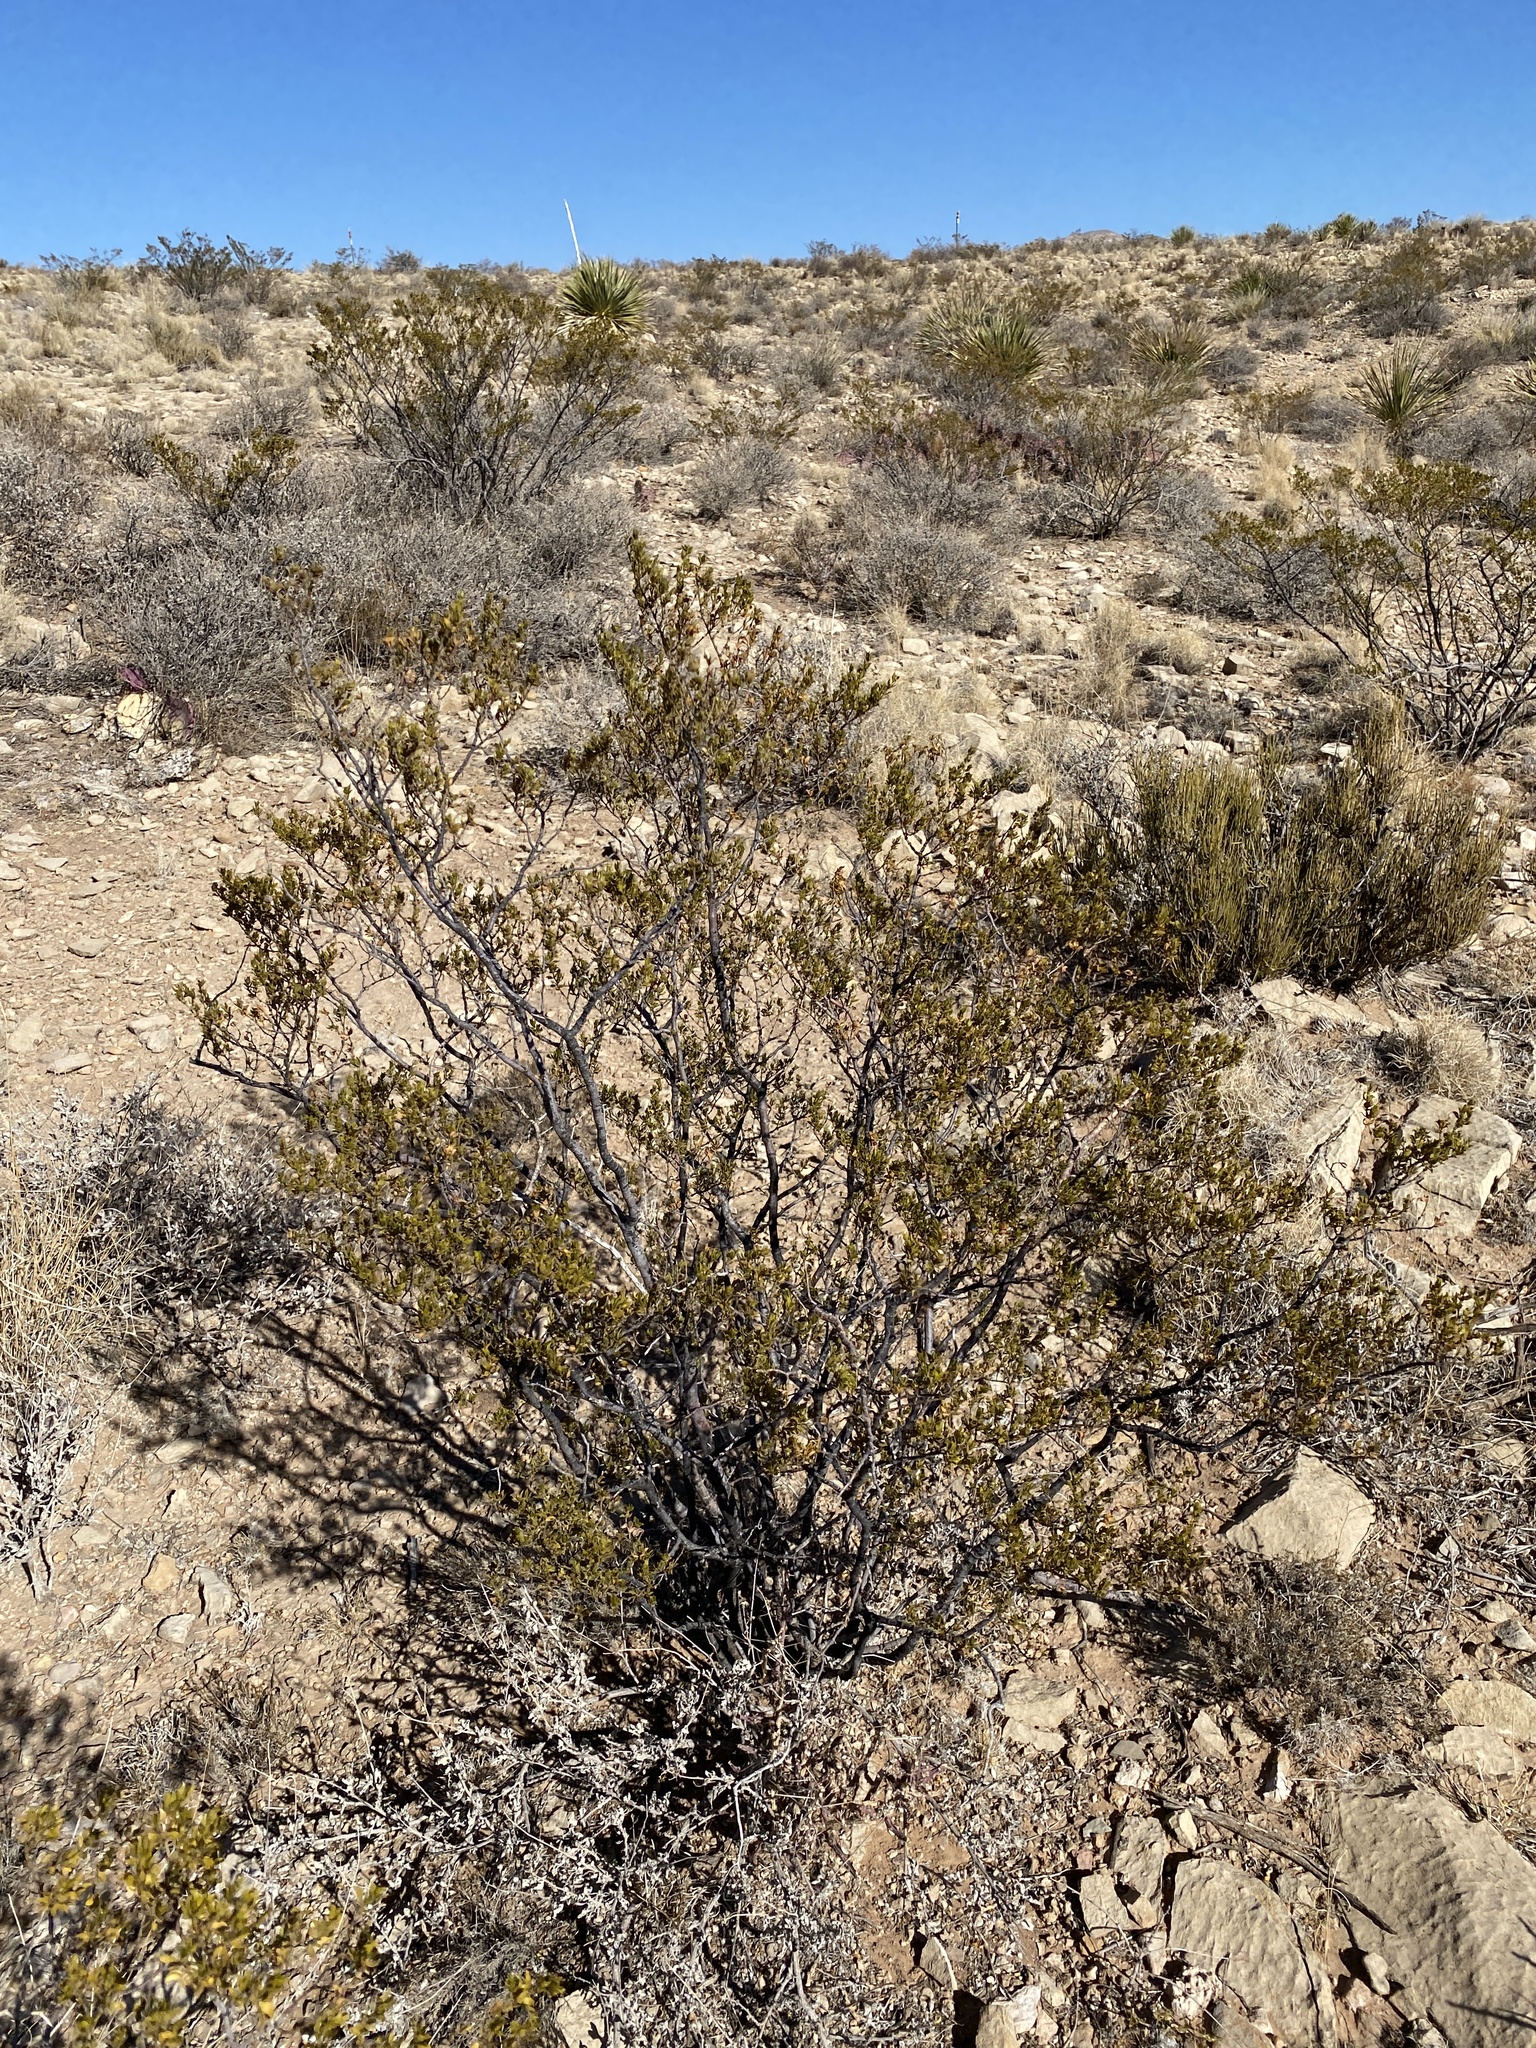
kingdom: Plantae
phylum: Tracheophyta
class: Magnoliopsida
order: Zygophyllales
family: Zygophyllaceae
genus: Larrea
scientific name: Larrea tridentata
